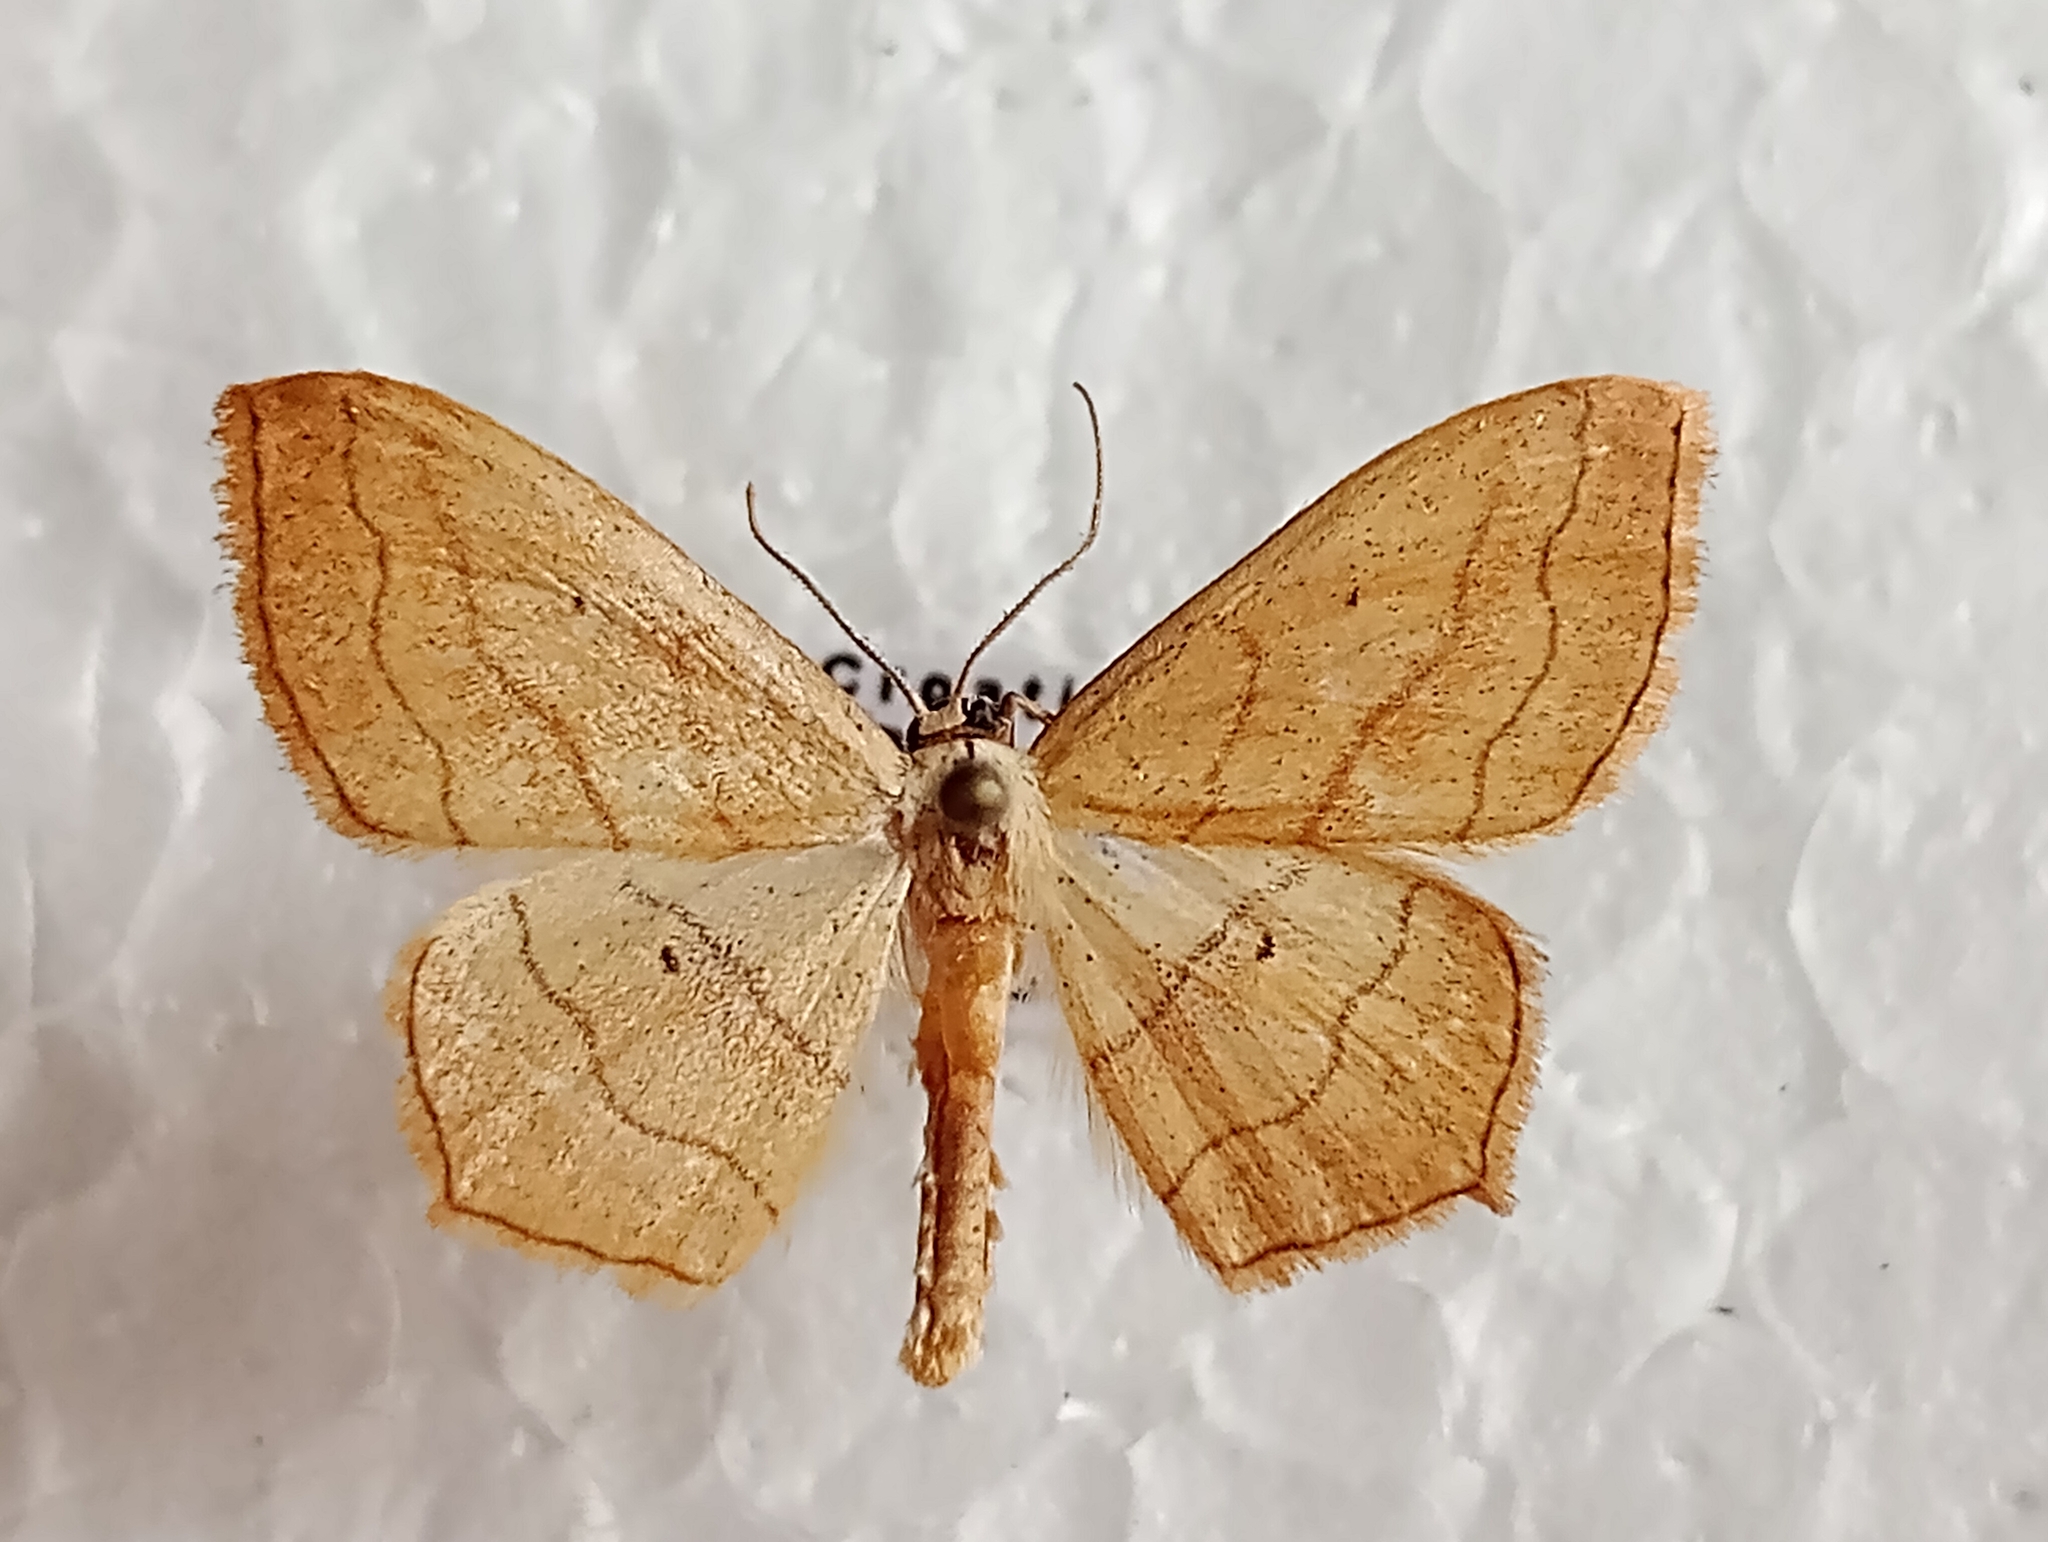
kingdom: Animalia
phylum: Arthropoda
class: Insecta
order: Lepidoptera
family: Geometridae
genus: Scopula
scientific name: Scopula imitaria
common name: Small blood-vein
